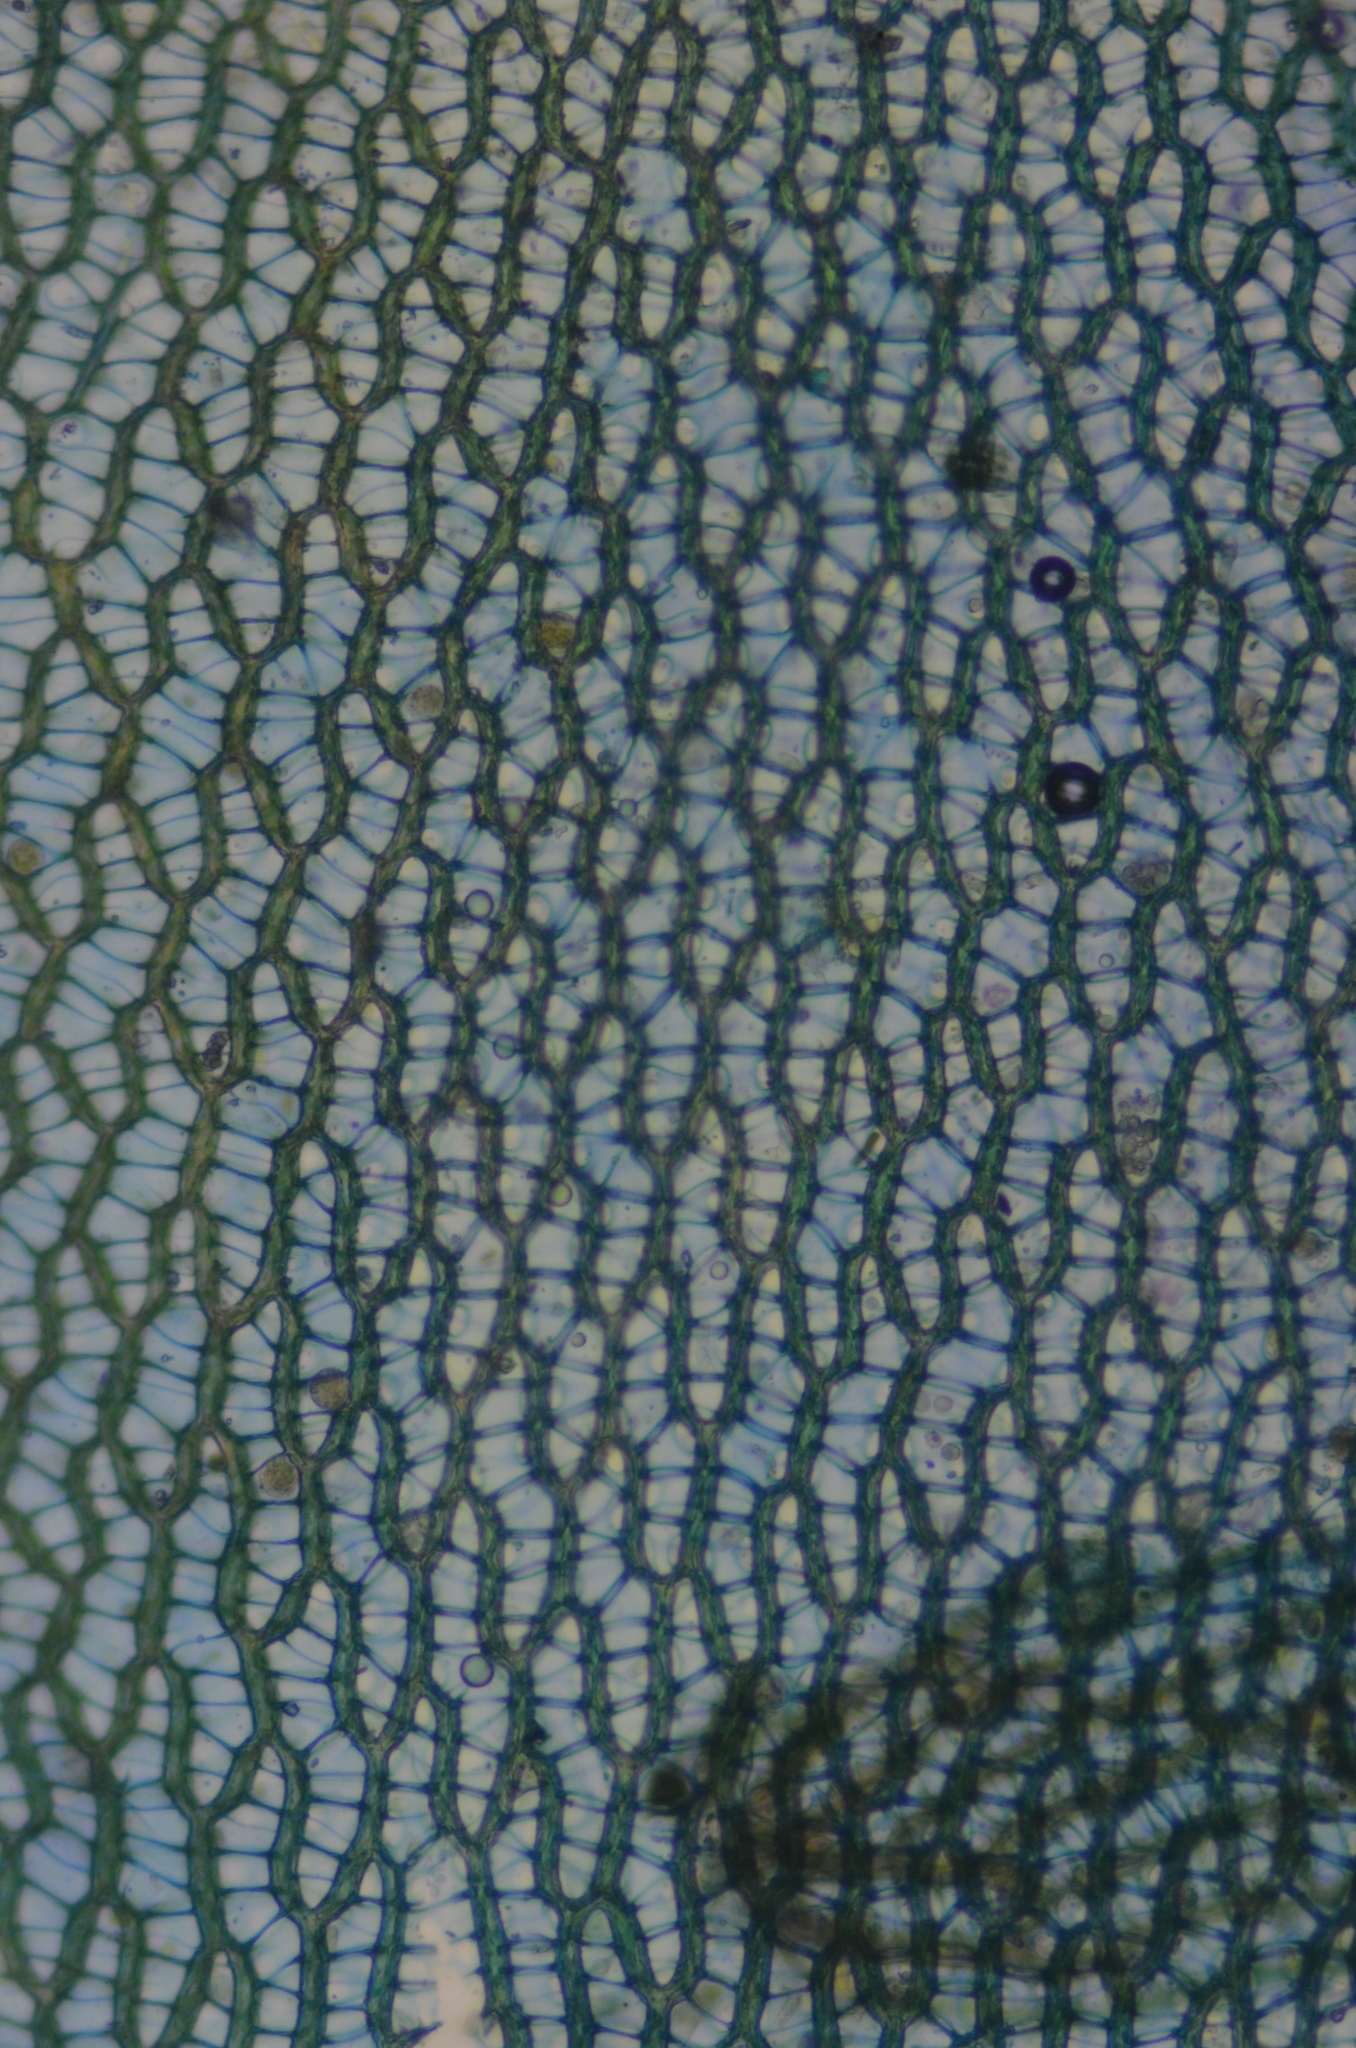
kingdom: Plantae
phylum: Bryophyta
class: Sphagnopsida
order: Sphagnales
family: Sphagnaceae
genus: Sphagnum
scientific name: Sphagnum palustre
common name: Blunt-leaved bog-moss
